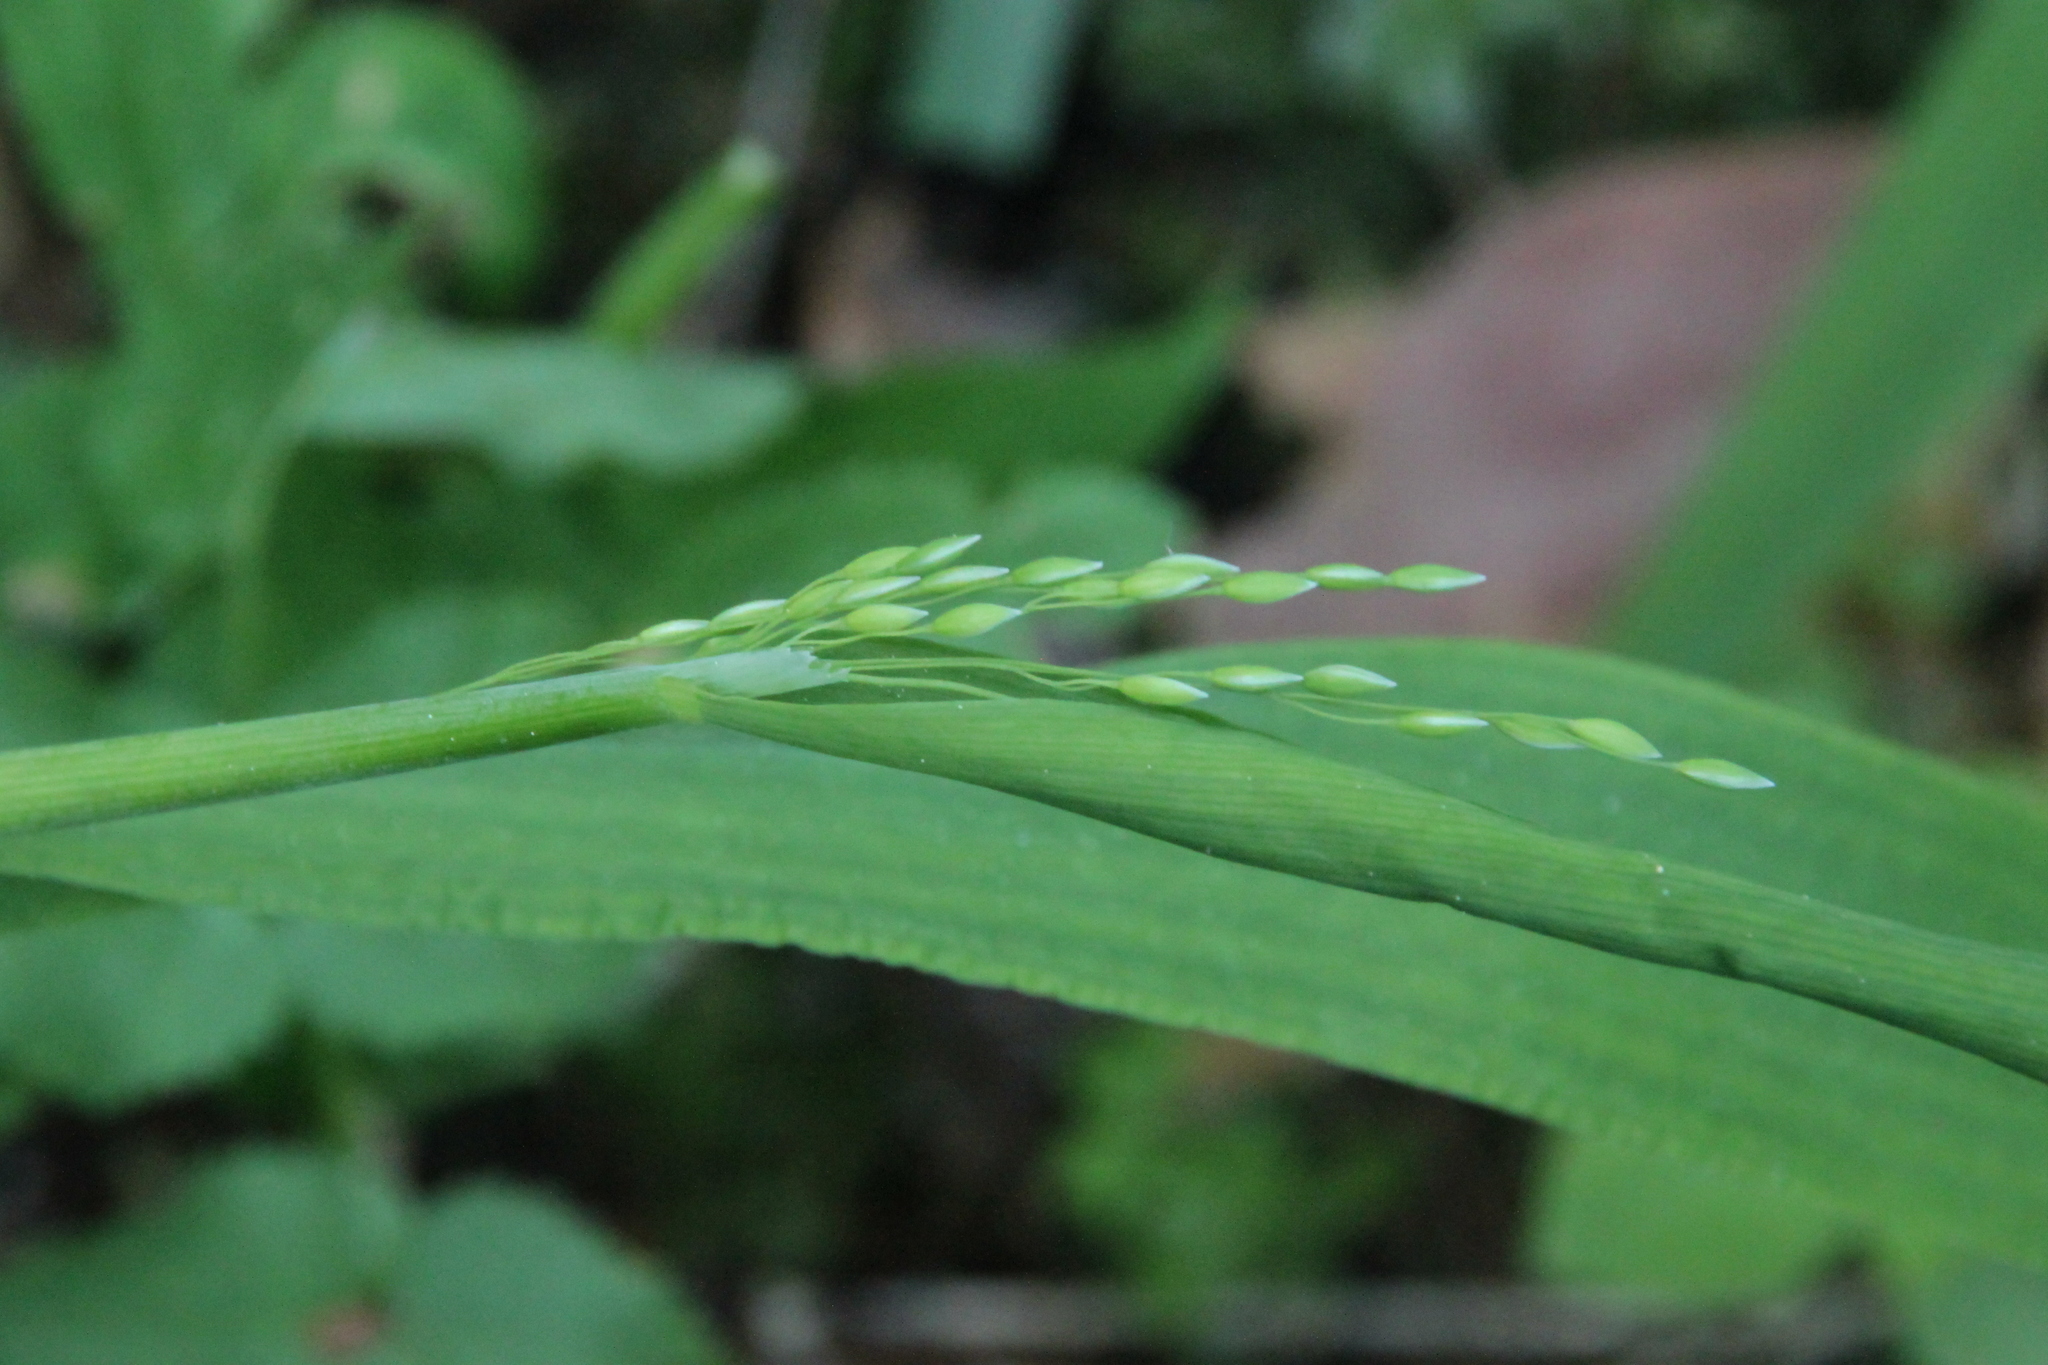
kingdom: Plantae
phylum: Tracheophyta
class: Liliopsida
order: Poales
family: Poaceae
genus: Milium
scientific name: Milium effusum
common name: Wood millet
